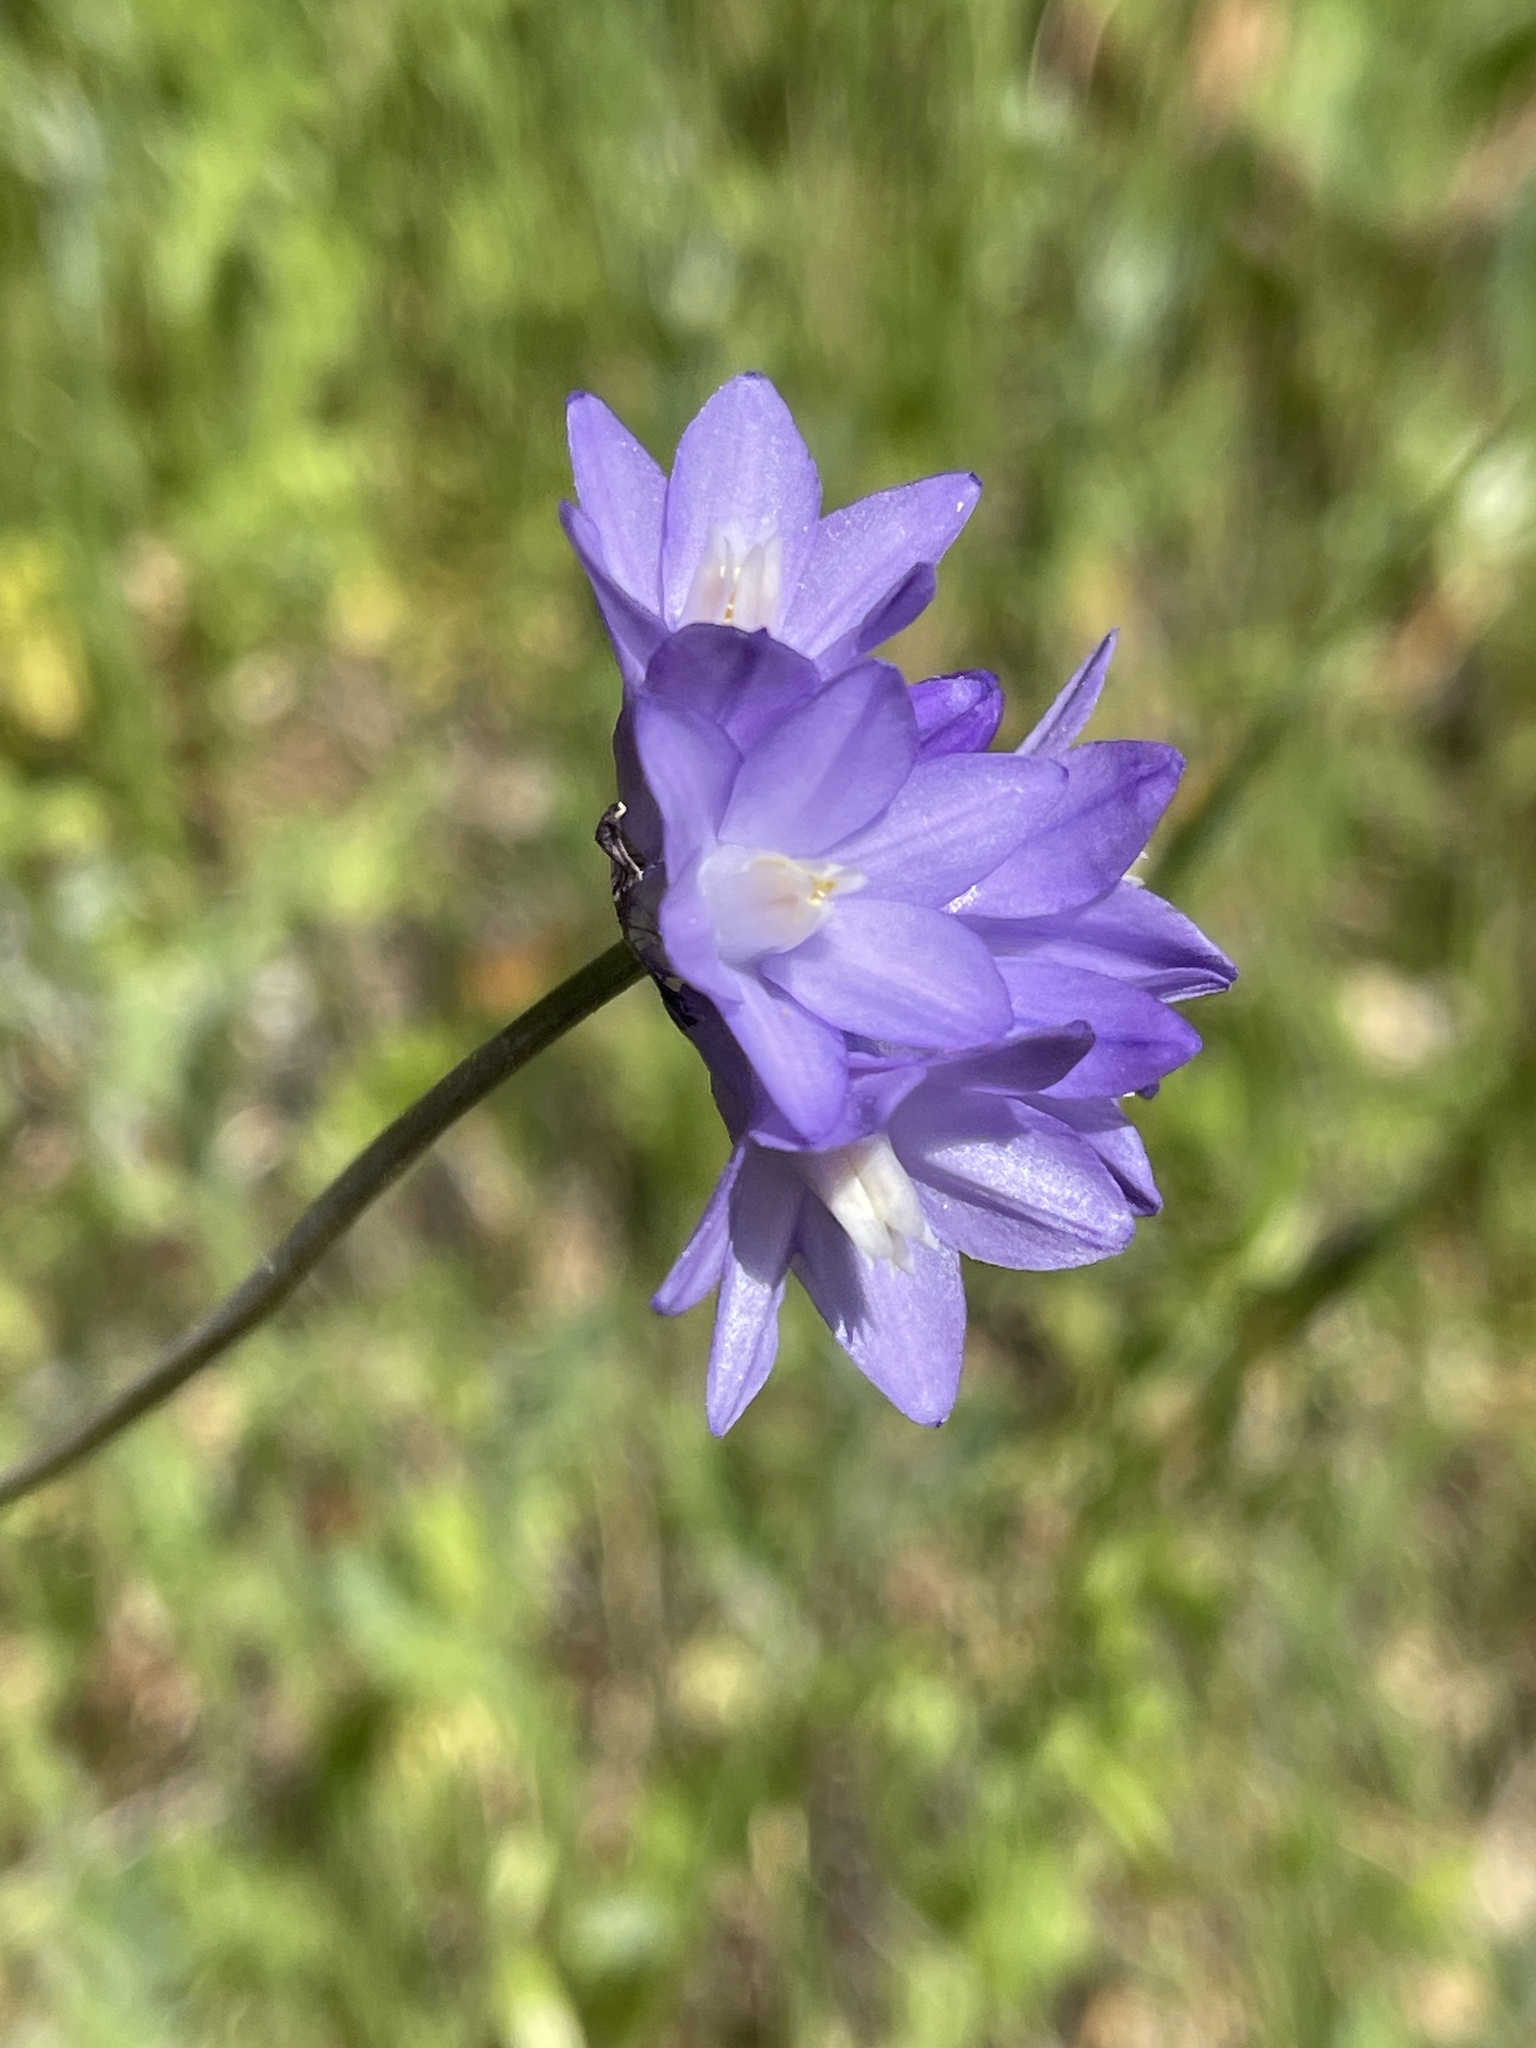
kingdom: Plantae
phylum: Tracheophyta
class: Liliopsida
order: Asparagales
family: Asparagaceae
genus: Dipterostemon
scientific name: Dipterostemon capitatus
